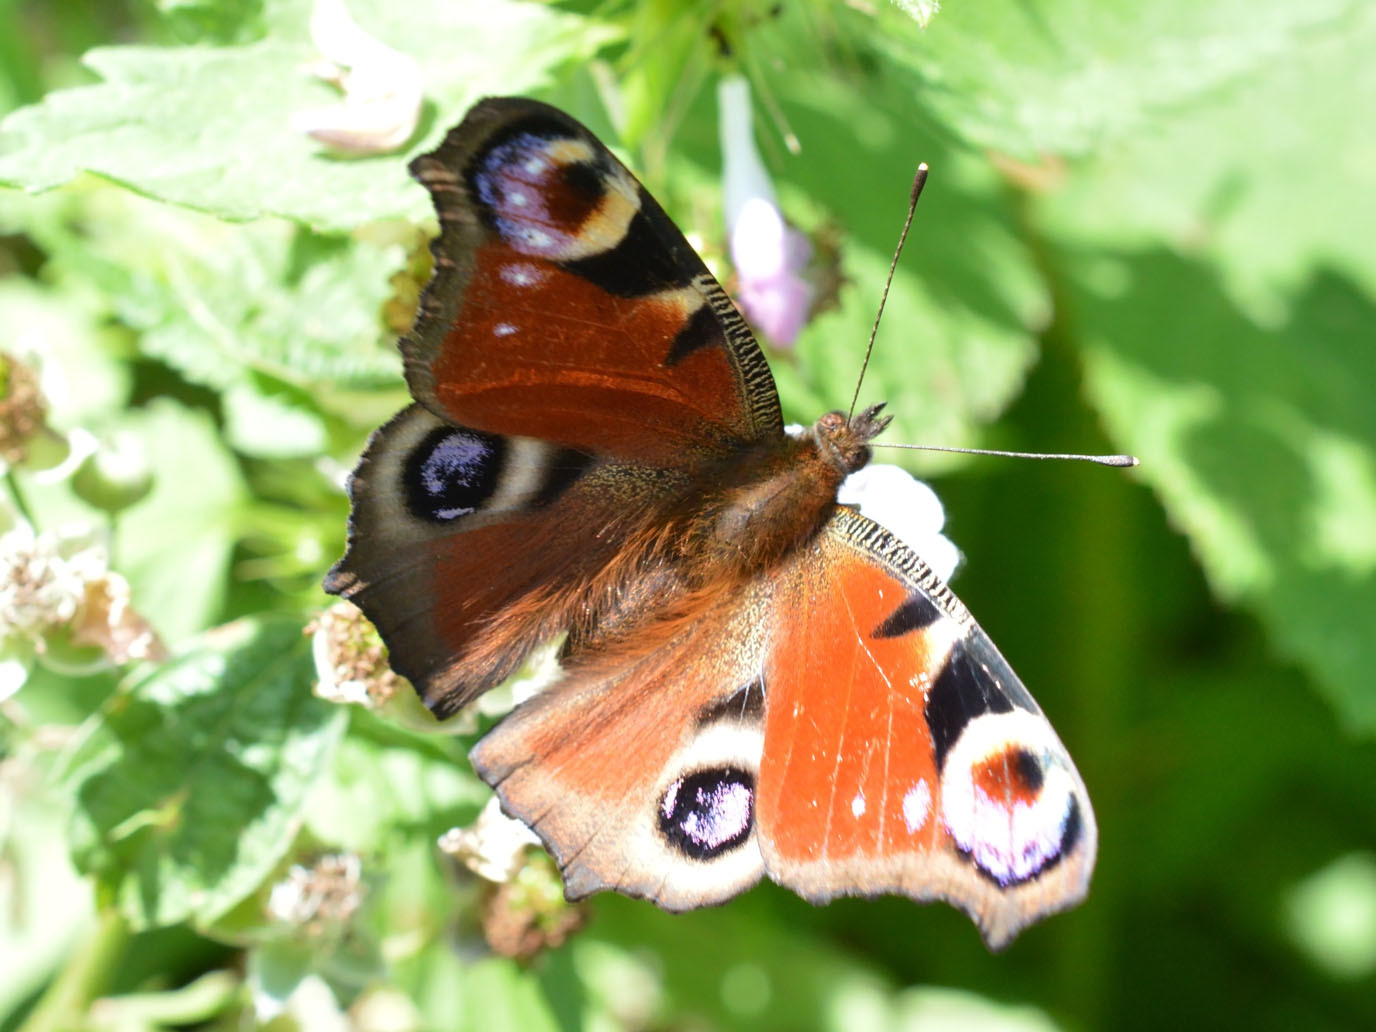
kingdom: Animalia
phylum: Arthropoda
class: Insecta
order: Lepidoptera
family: Nymphalidae
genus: Aglais
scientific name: Aglais io
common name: Peacock
